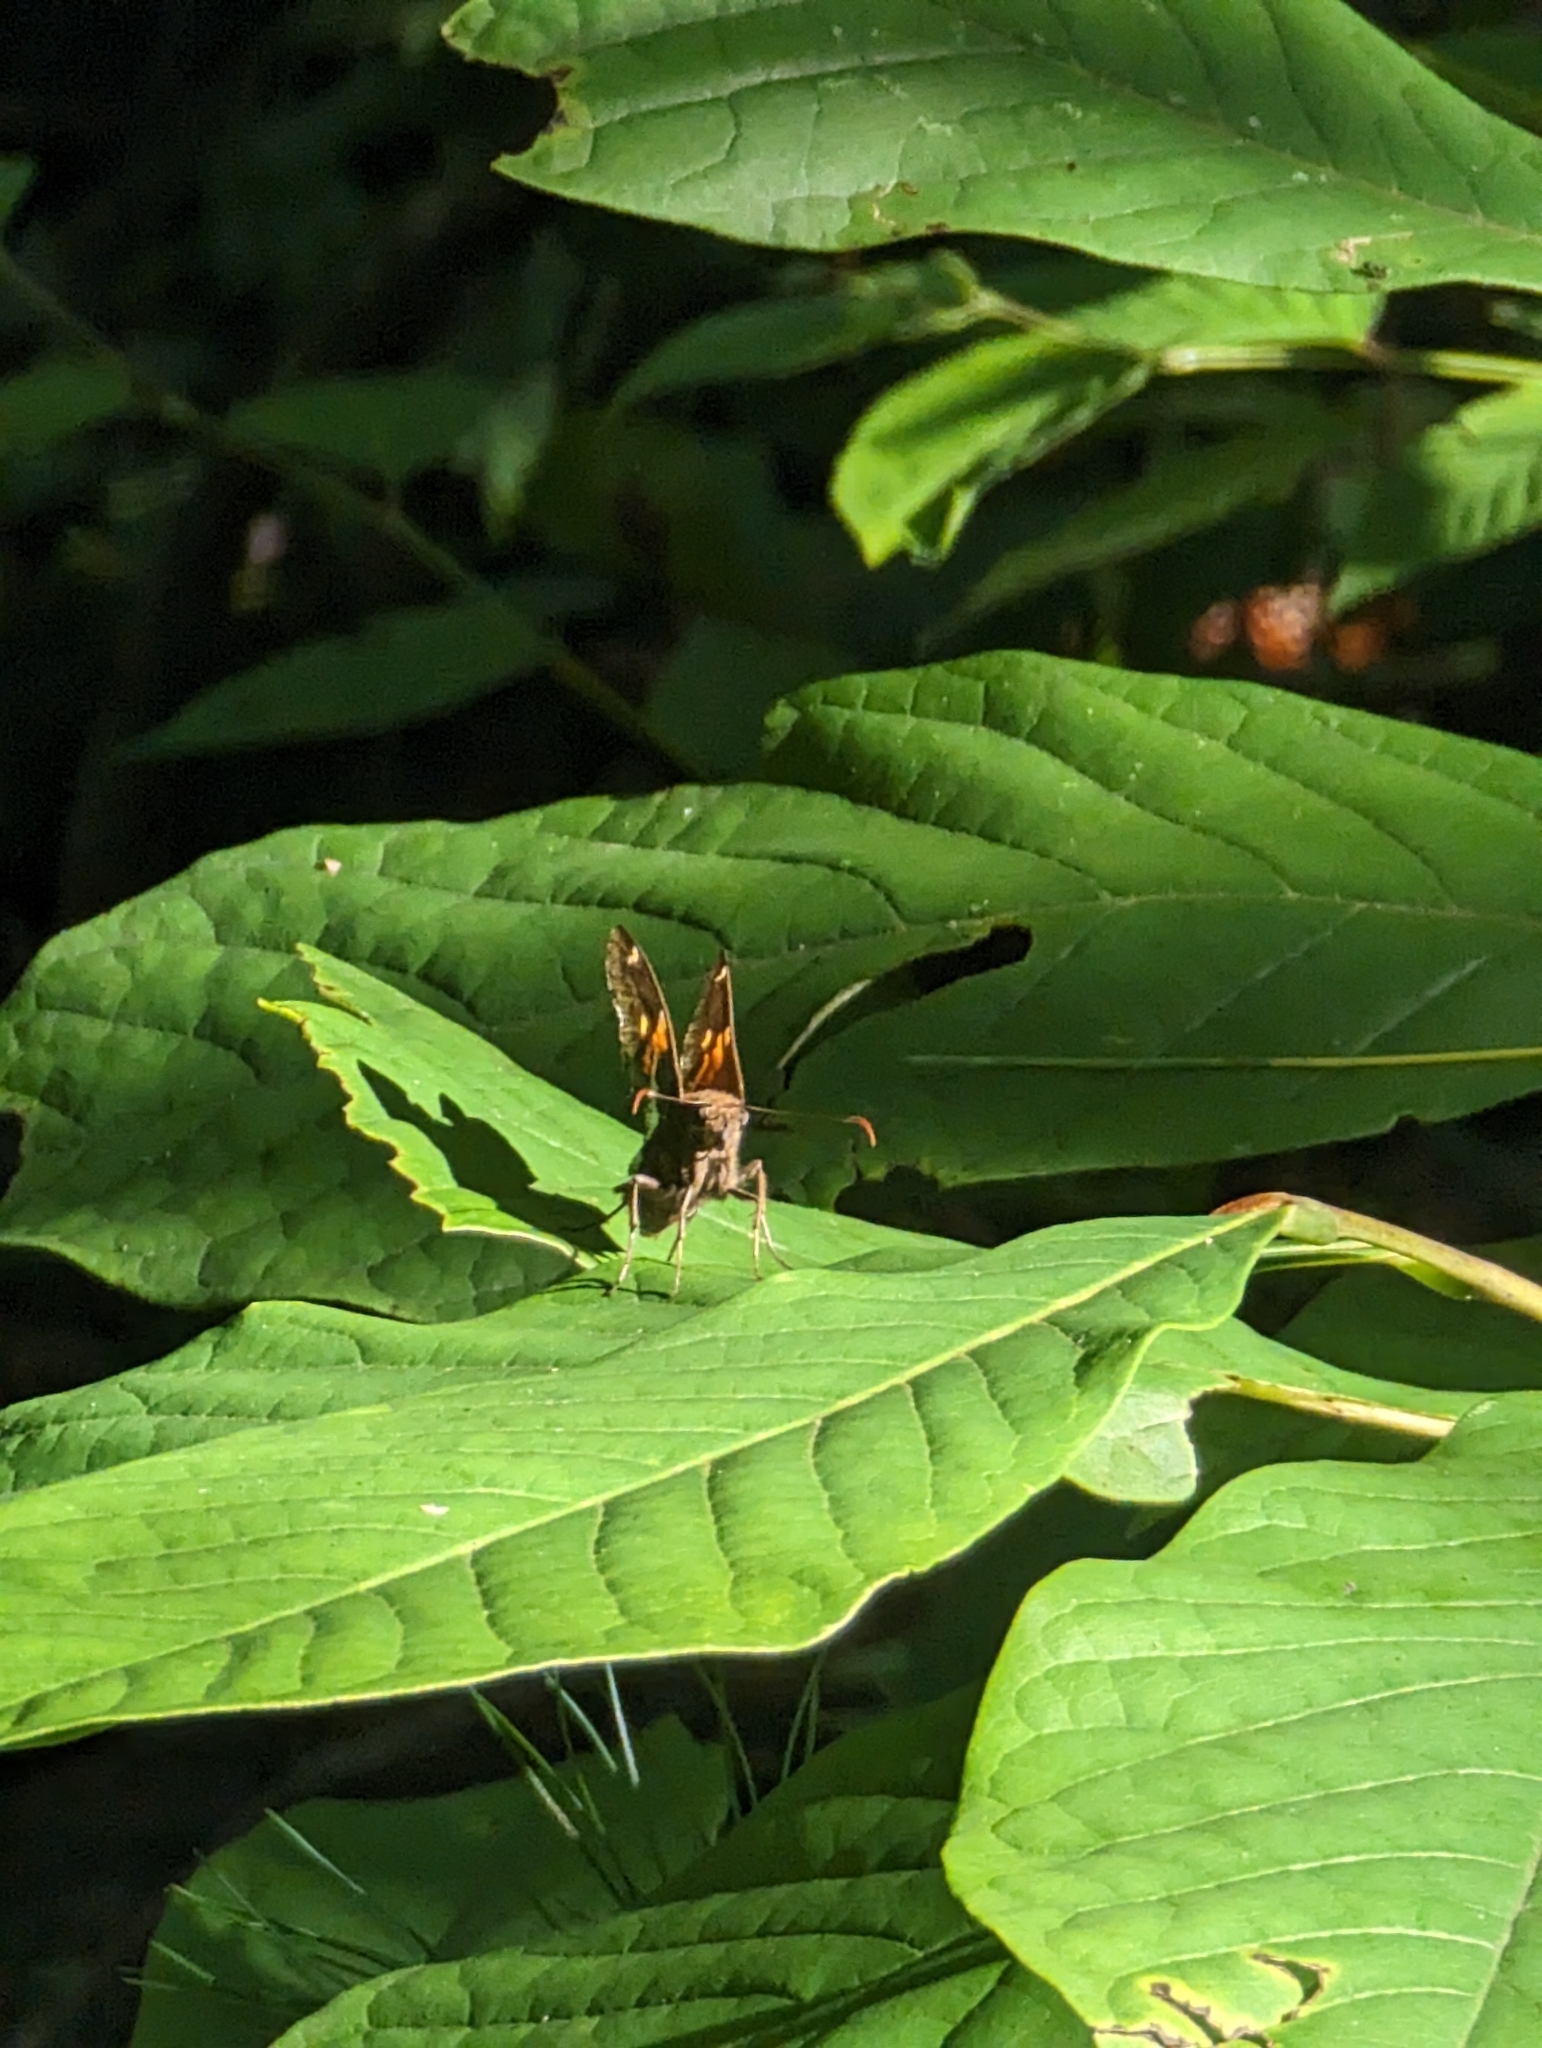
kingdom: Animalia
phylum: Arthropoda
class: Insecta
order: Lepidoptera
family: Hesperiidae
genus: Epargyreus
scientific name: Epargyreus clarus
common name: Silver-spotted skipper
